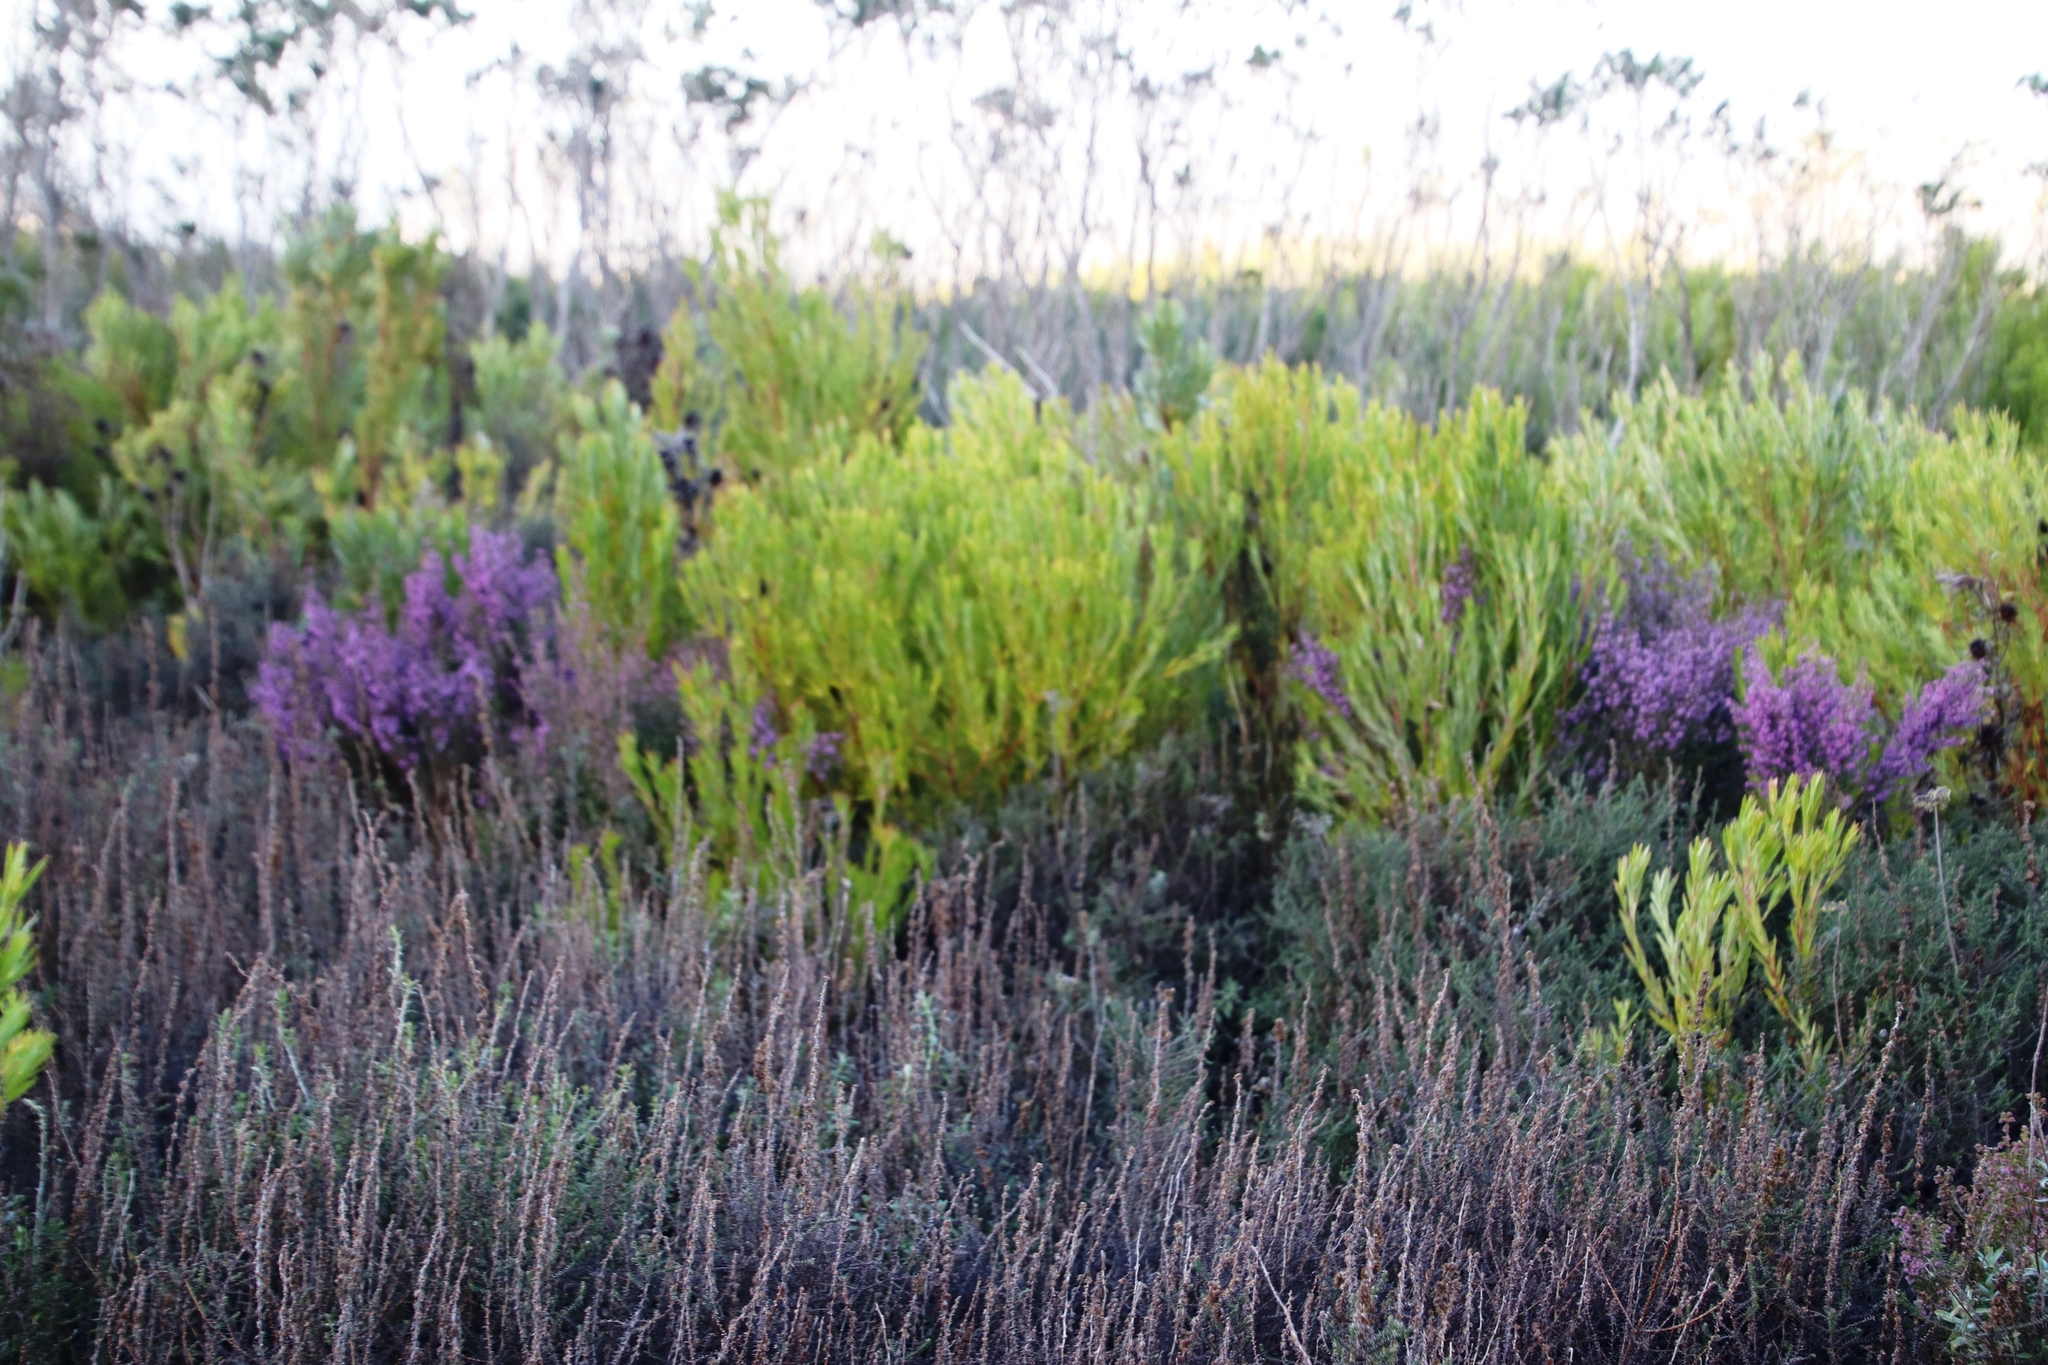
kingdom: Plantae
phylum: Tracheophyta
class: Magnoliopsida
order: Asterales
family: Asteraceae
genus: Seriphium
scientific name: Seriphium cinereum
